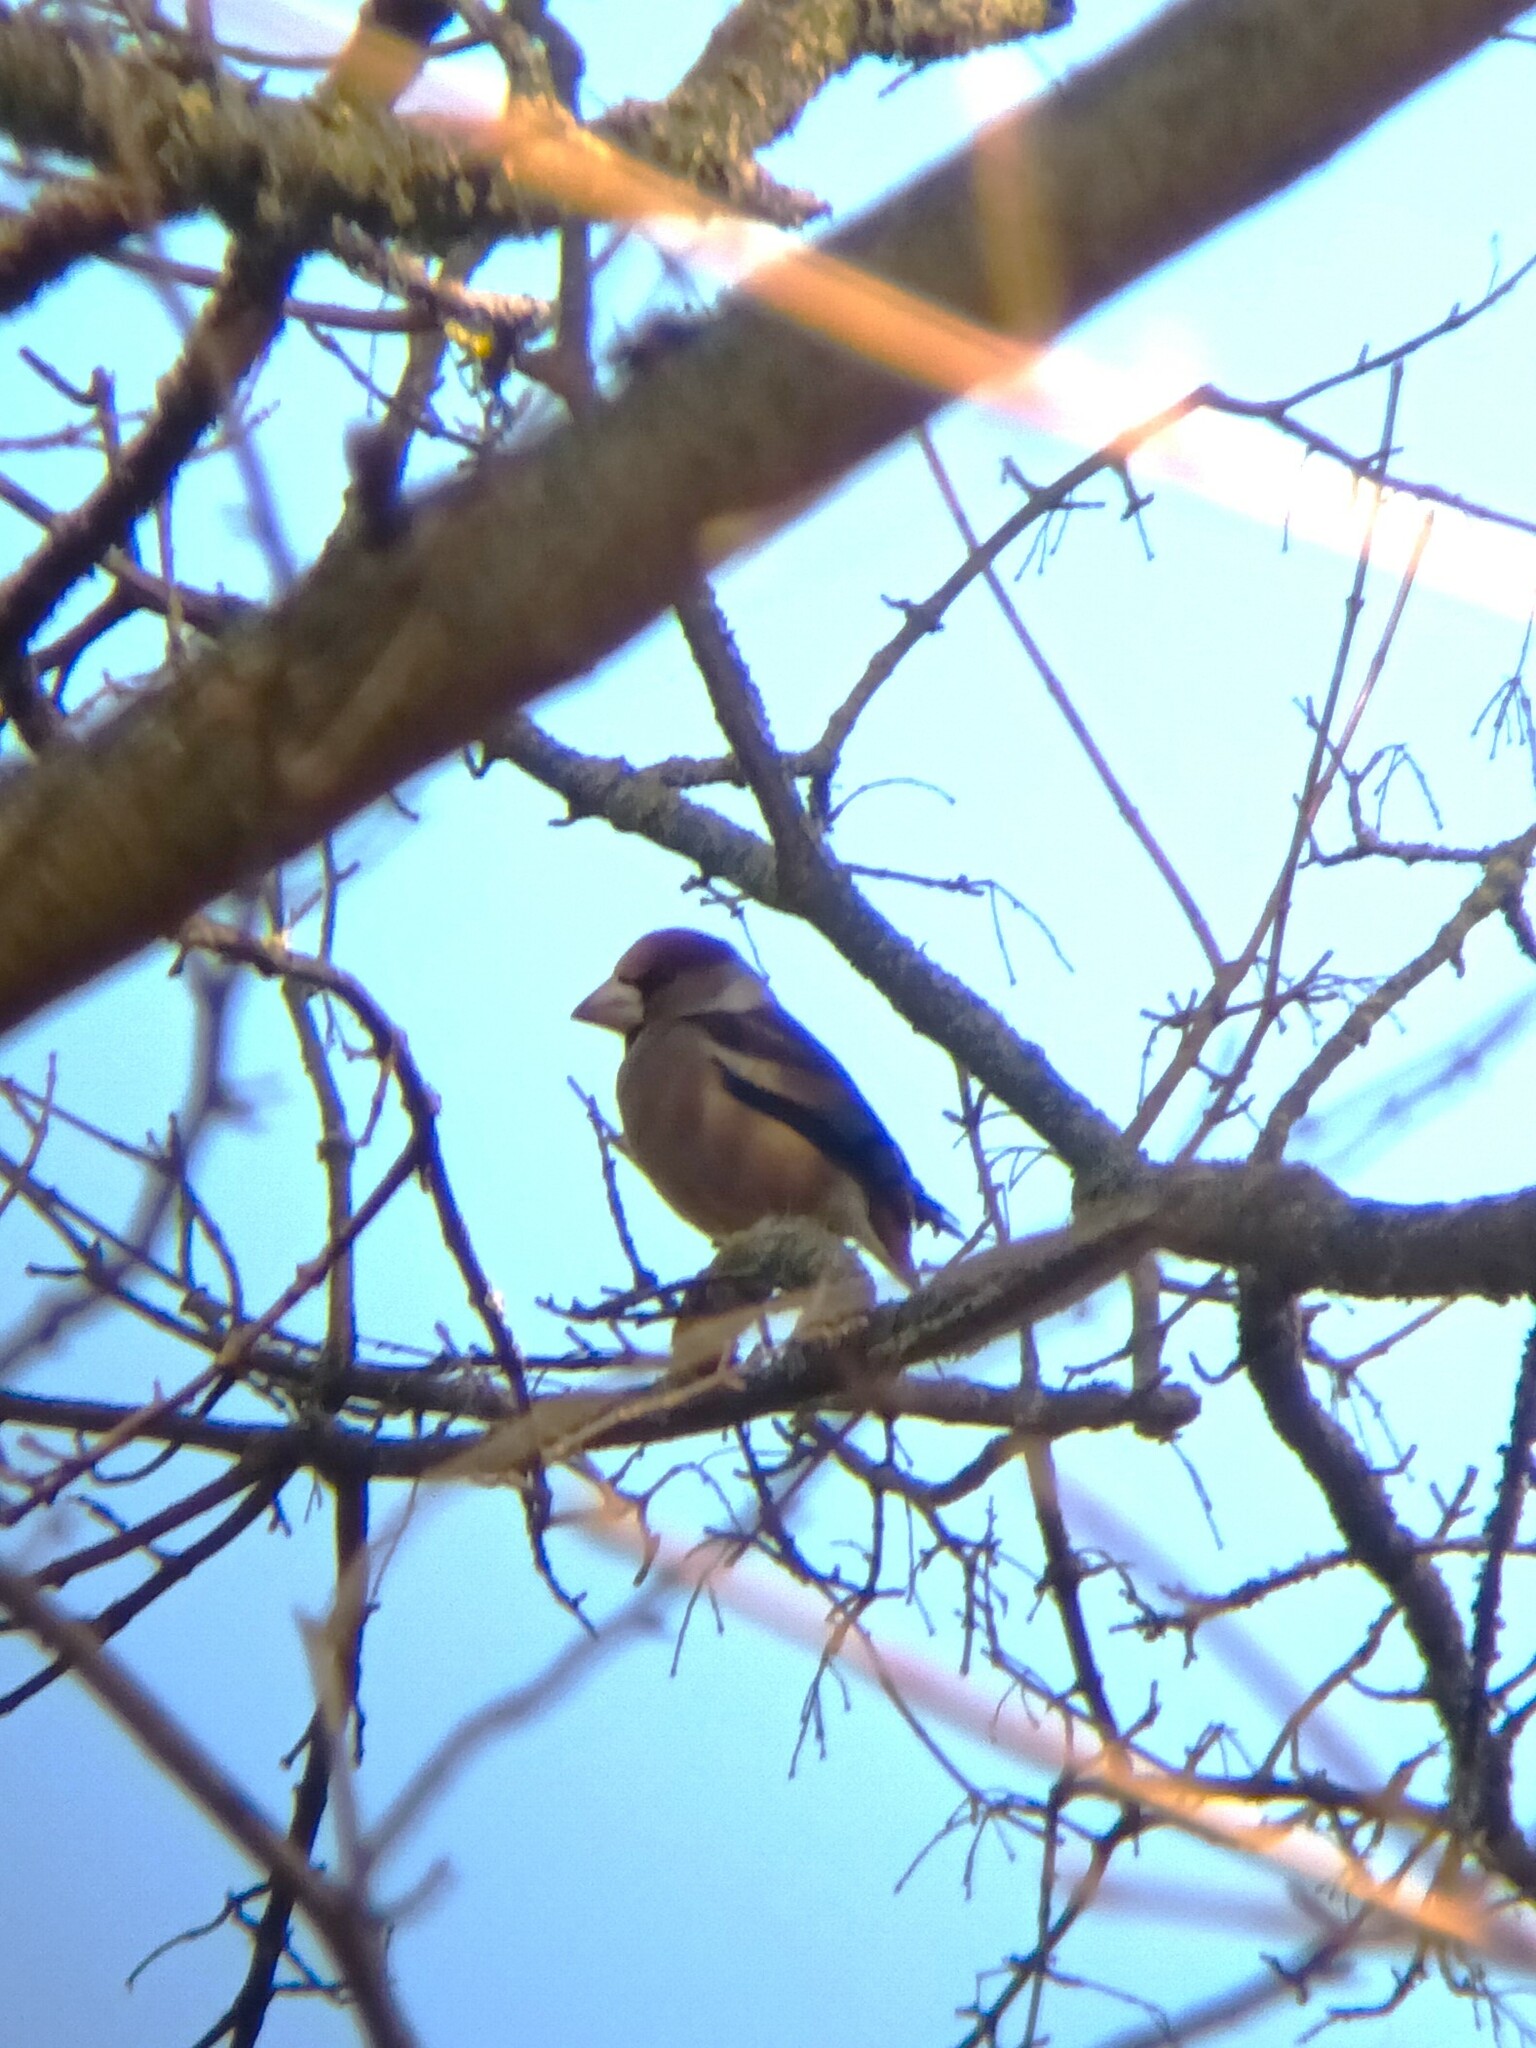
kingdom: Animalia
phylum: Chordata
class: Aves
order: Passeriformes
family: Fringillidae
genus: Coccothraustes
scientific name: Coccothraustes coccothraustes
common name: Hawfinch
